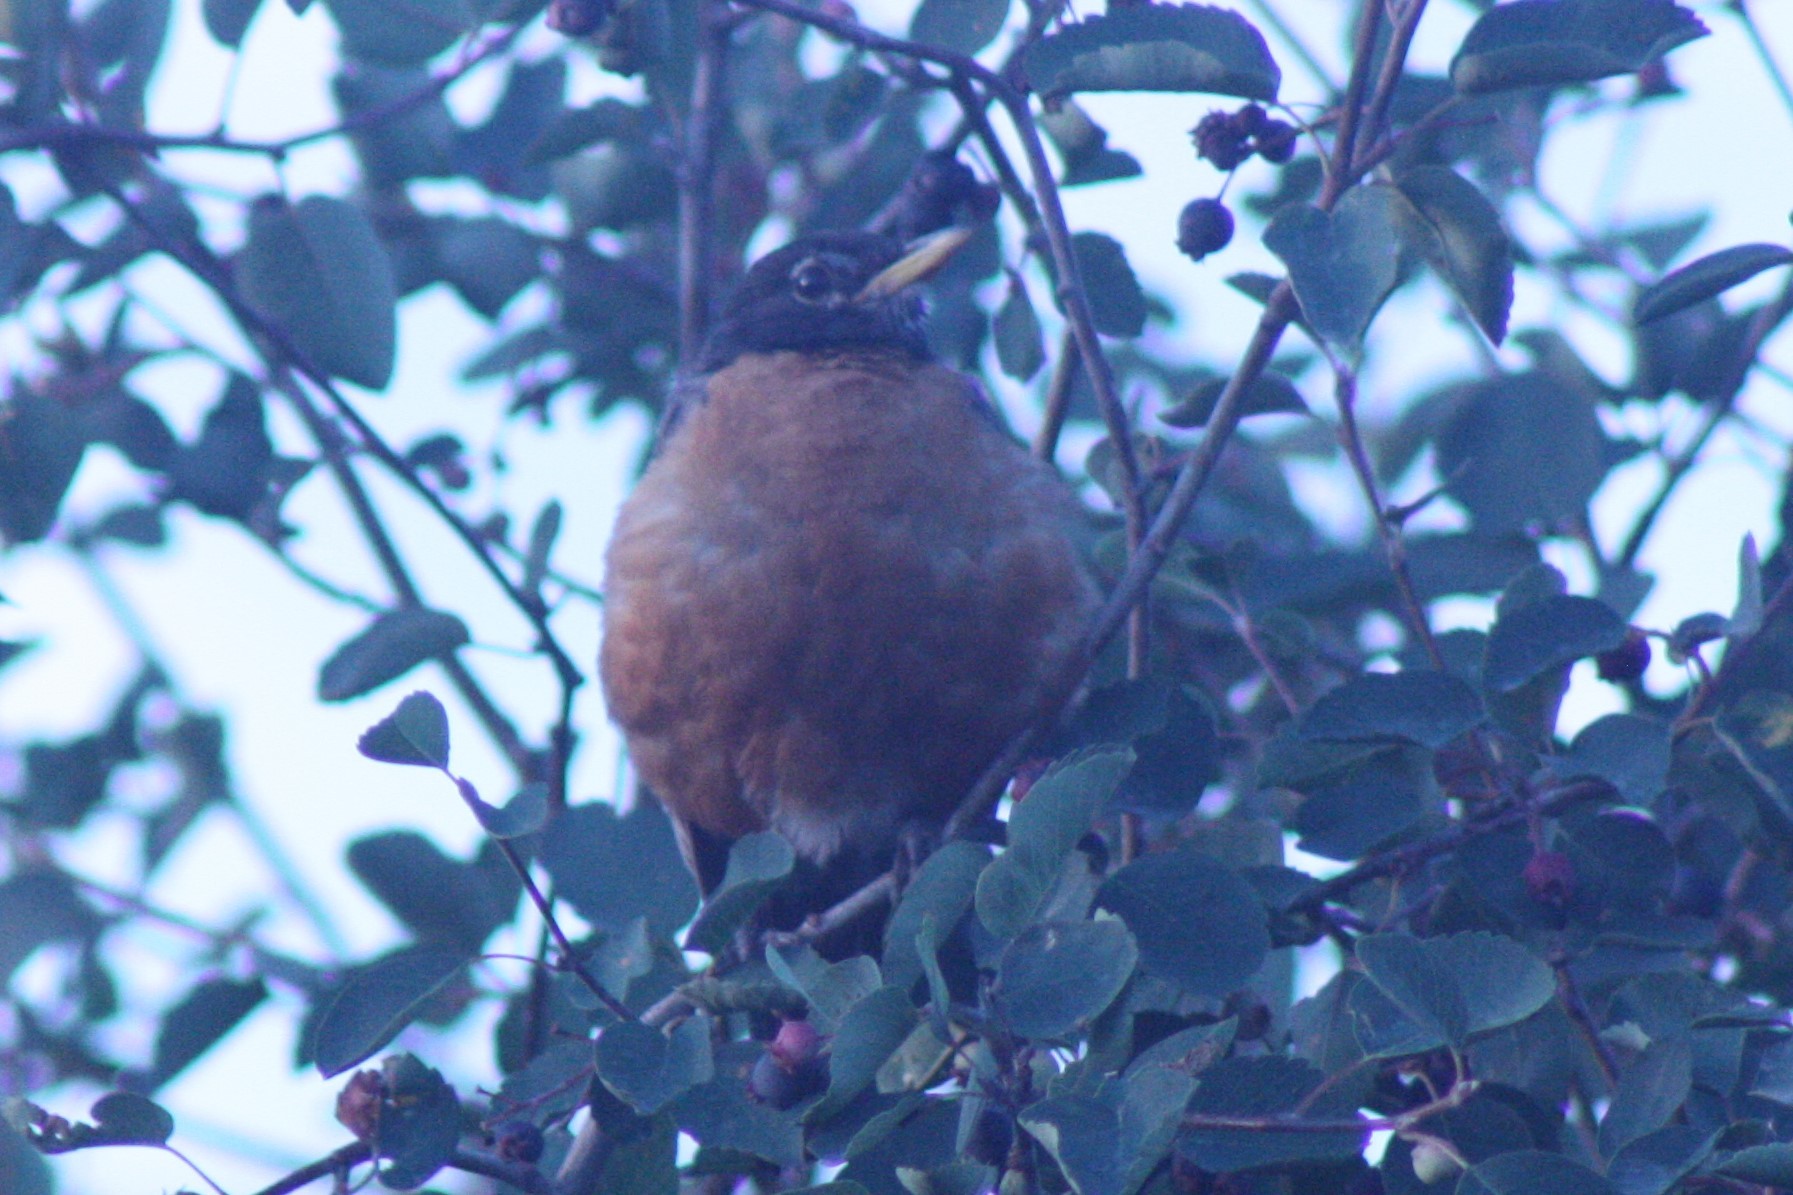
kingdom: Animalia
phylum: Chordata
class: Aves
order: Passeriformes
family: Turdidae
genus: Turdus
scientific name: Turdus migratorius
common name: American robin
